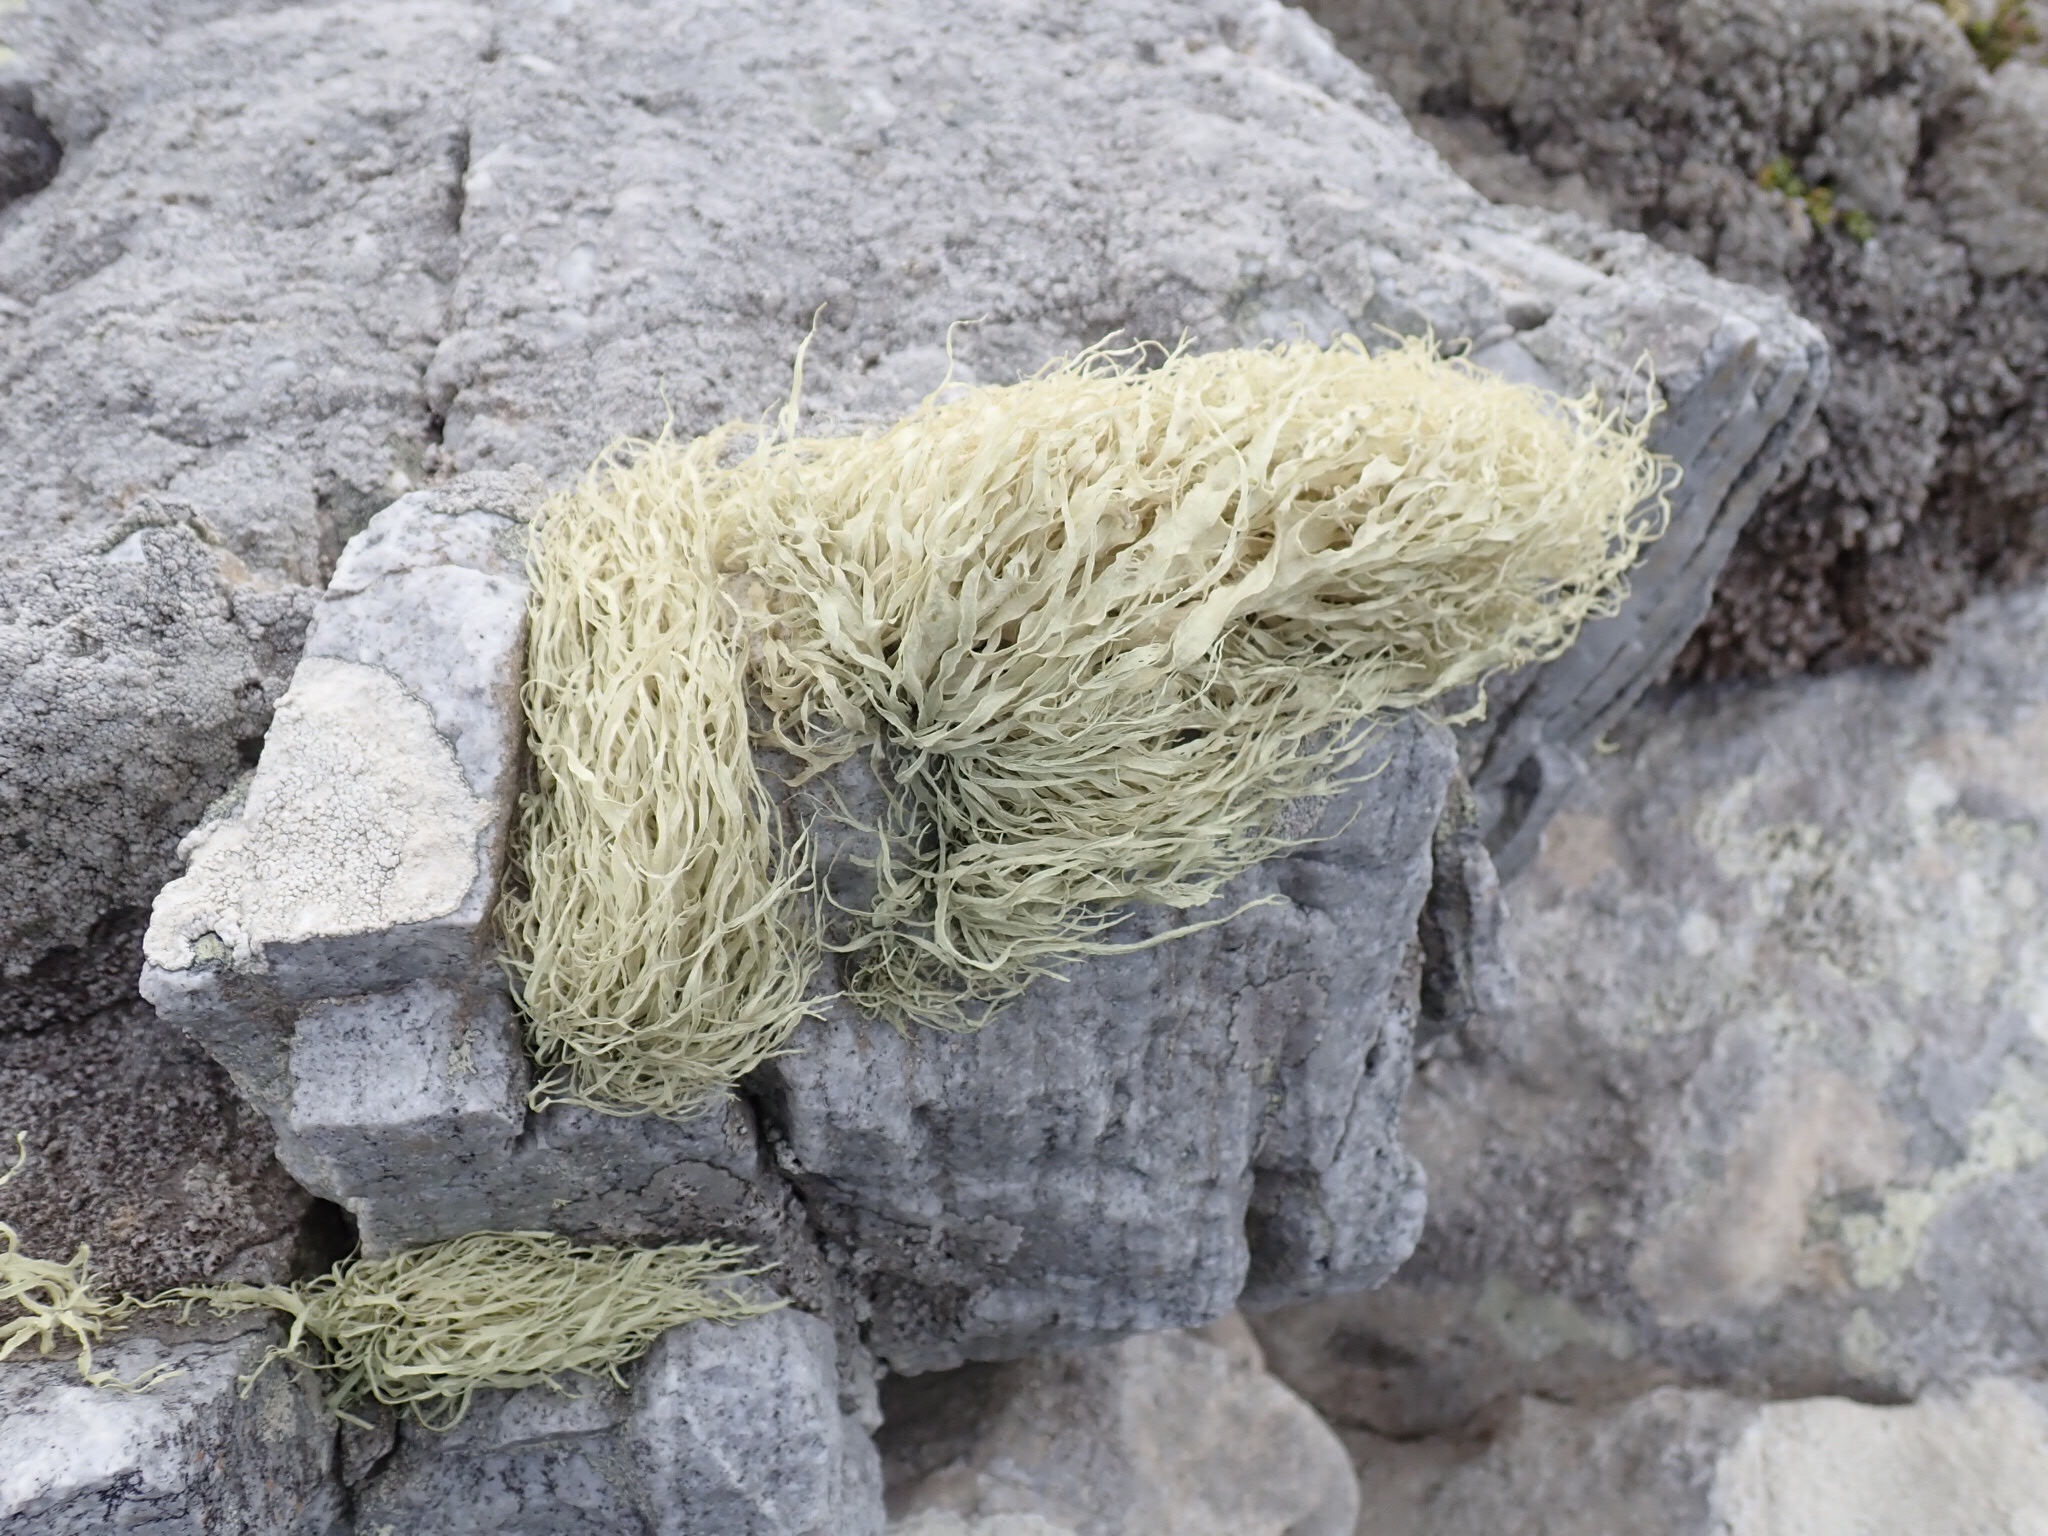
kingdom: Fungi
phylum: Ascomycota
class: Lecanoromycetes
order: Lecanorales
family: Ramalinaceae
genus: Ramalina
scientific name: Ramalina terebrata
